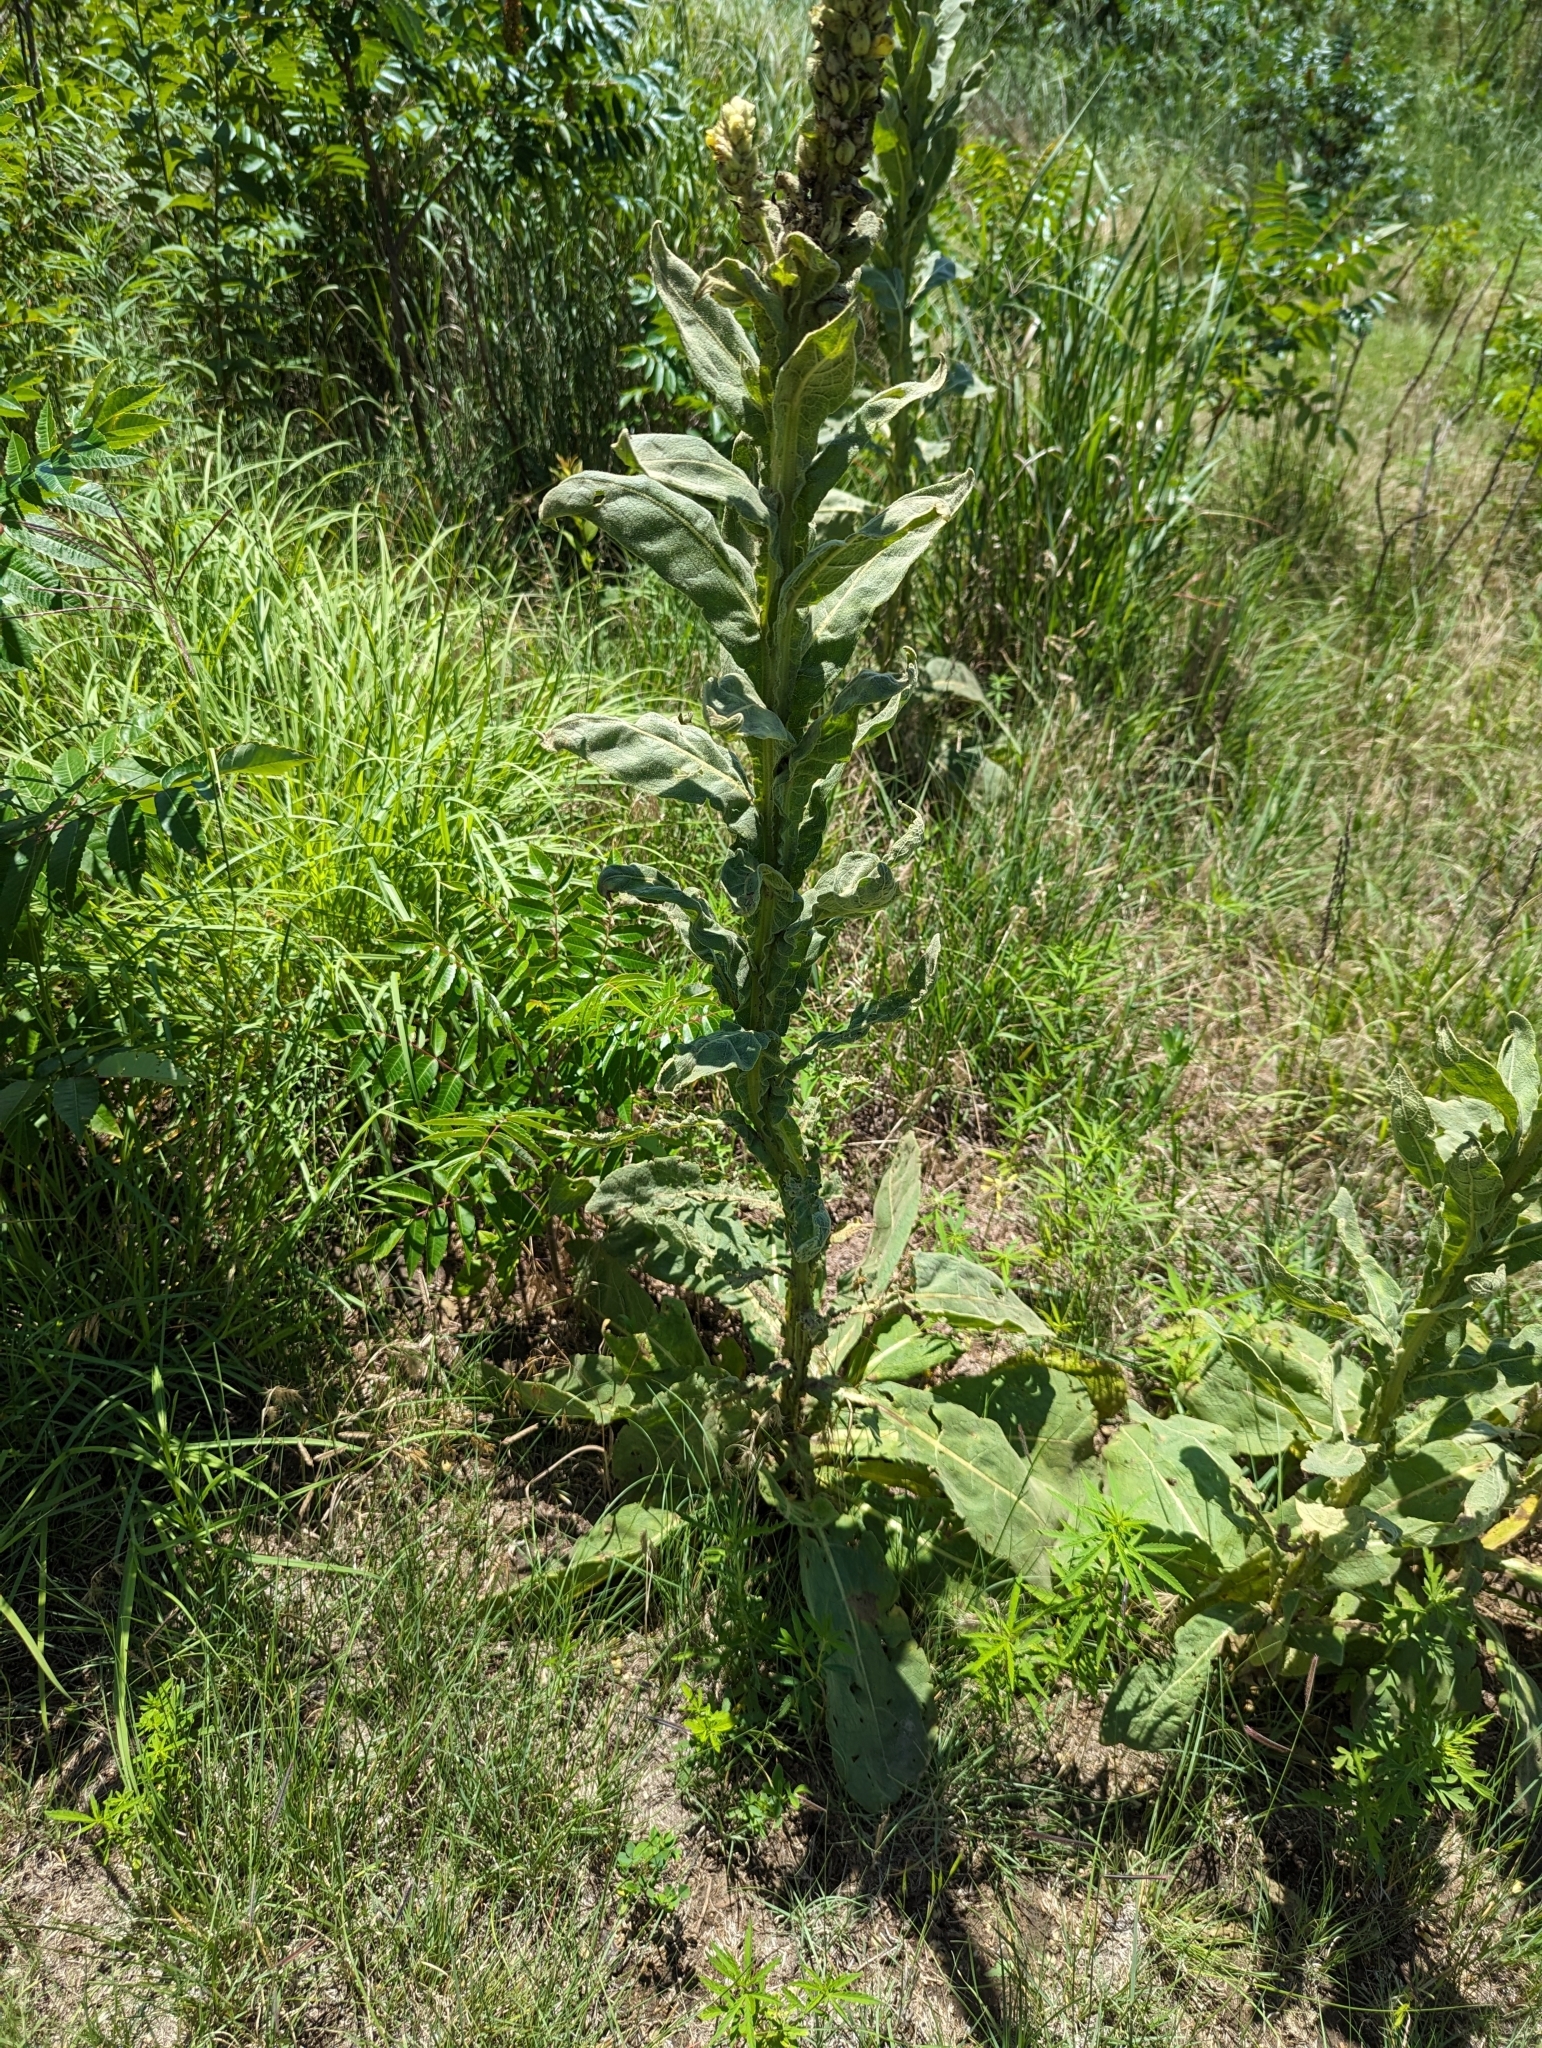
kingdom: Plantae
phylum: Tracheophyta
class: Magnoliopsida
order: Lamiales
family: Scrophulariaceae
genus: Verbascum
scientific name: Verbascum thapsus
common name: Common mullein
